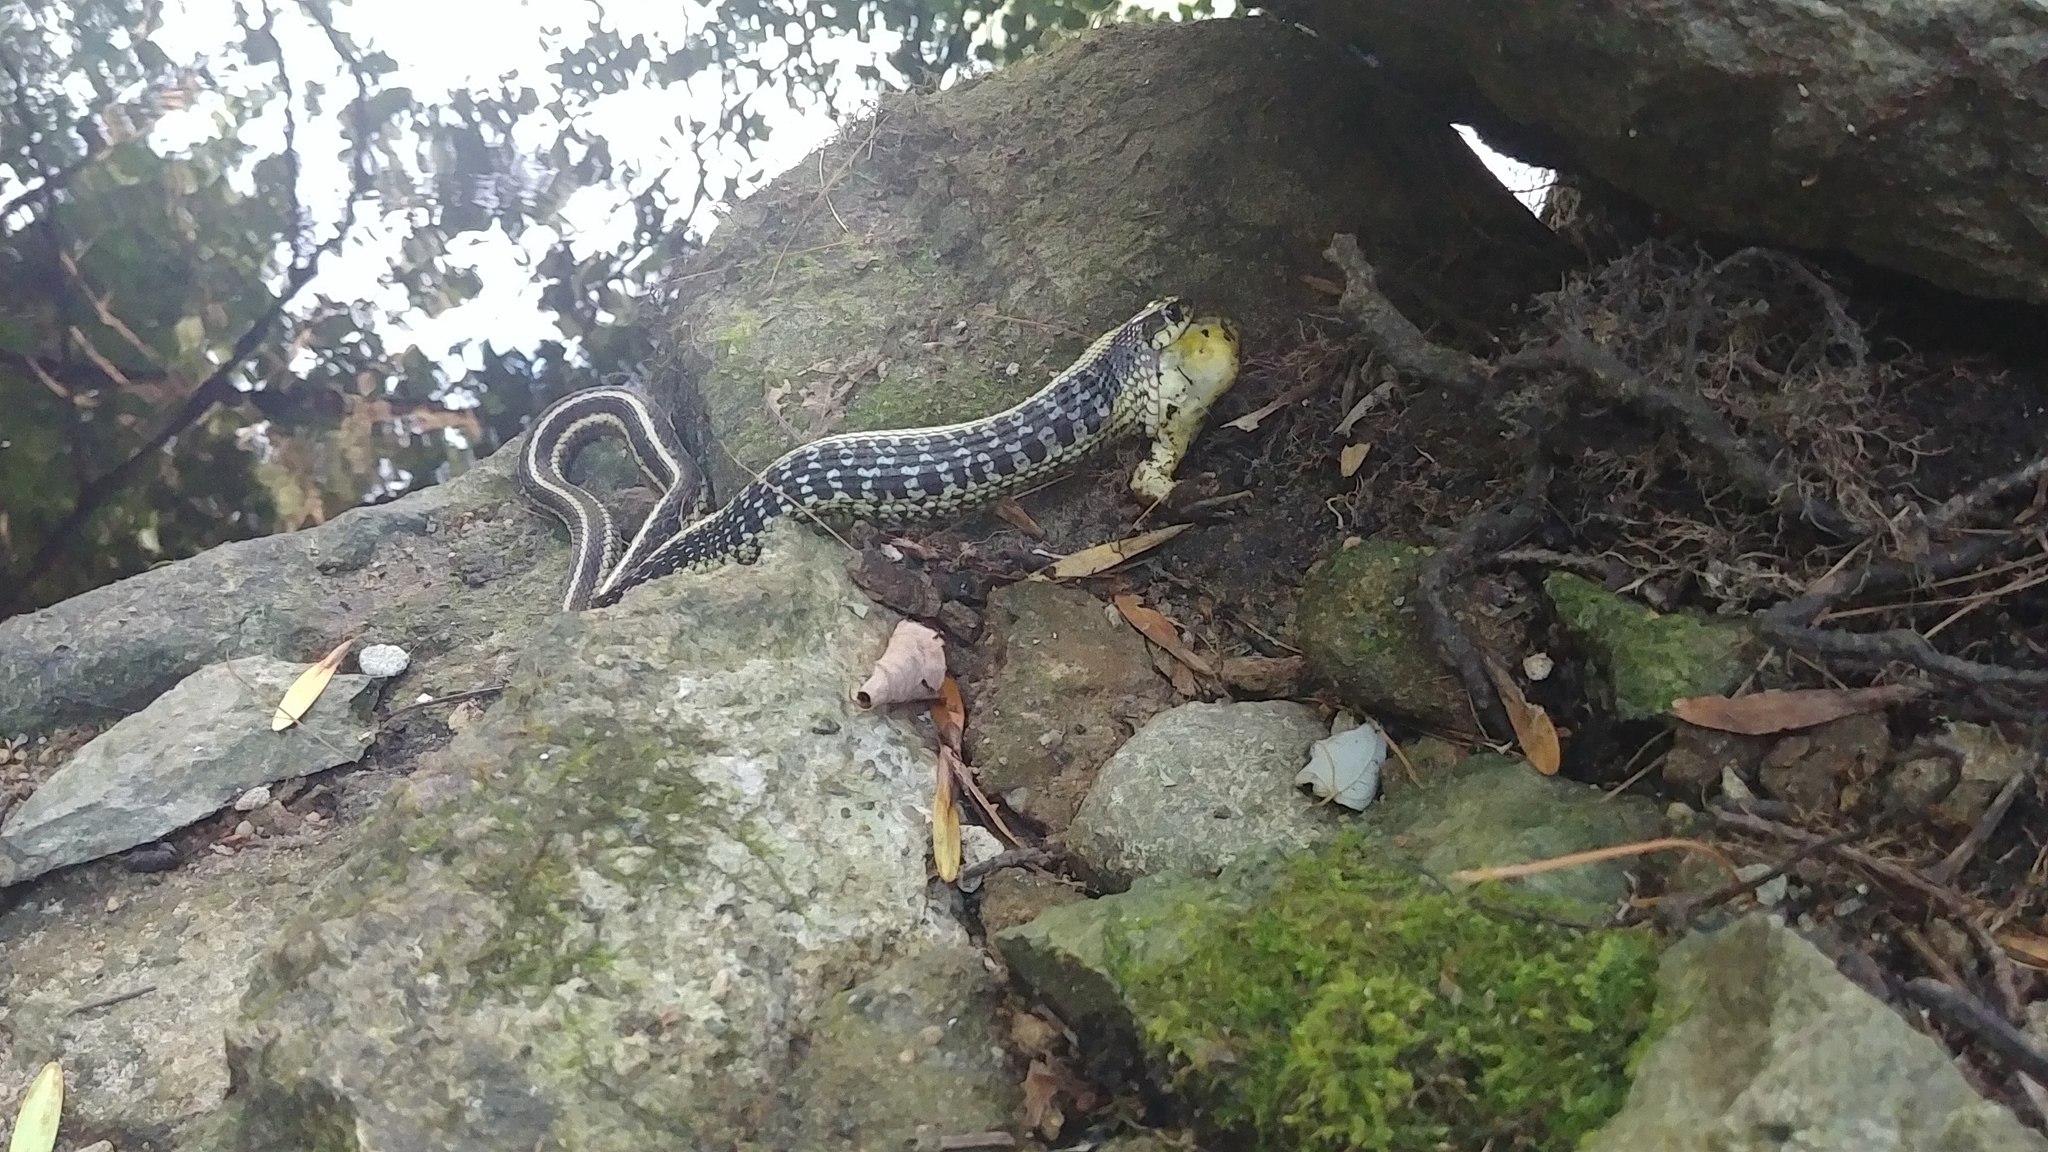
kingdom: Animalia
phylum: Chordata
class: Squamata
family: Colubridae
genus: Thamnophis
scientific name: Thamnophis sirtalis
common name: Common garter snake
